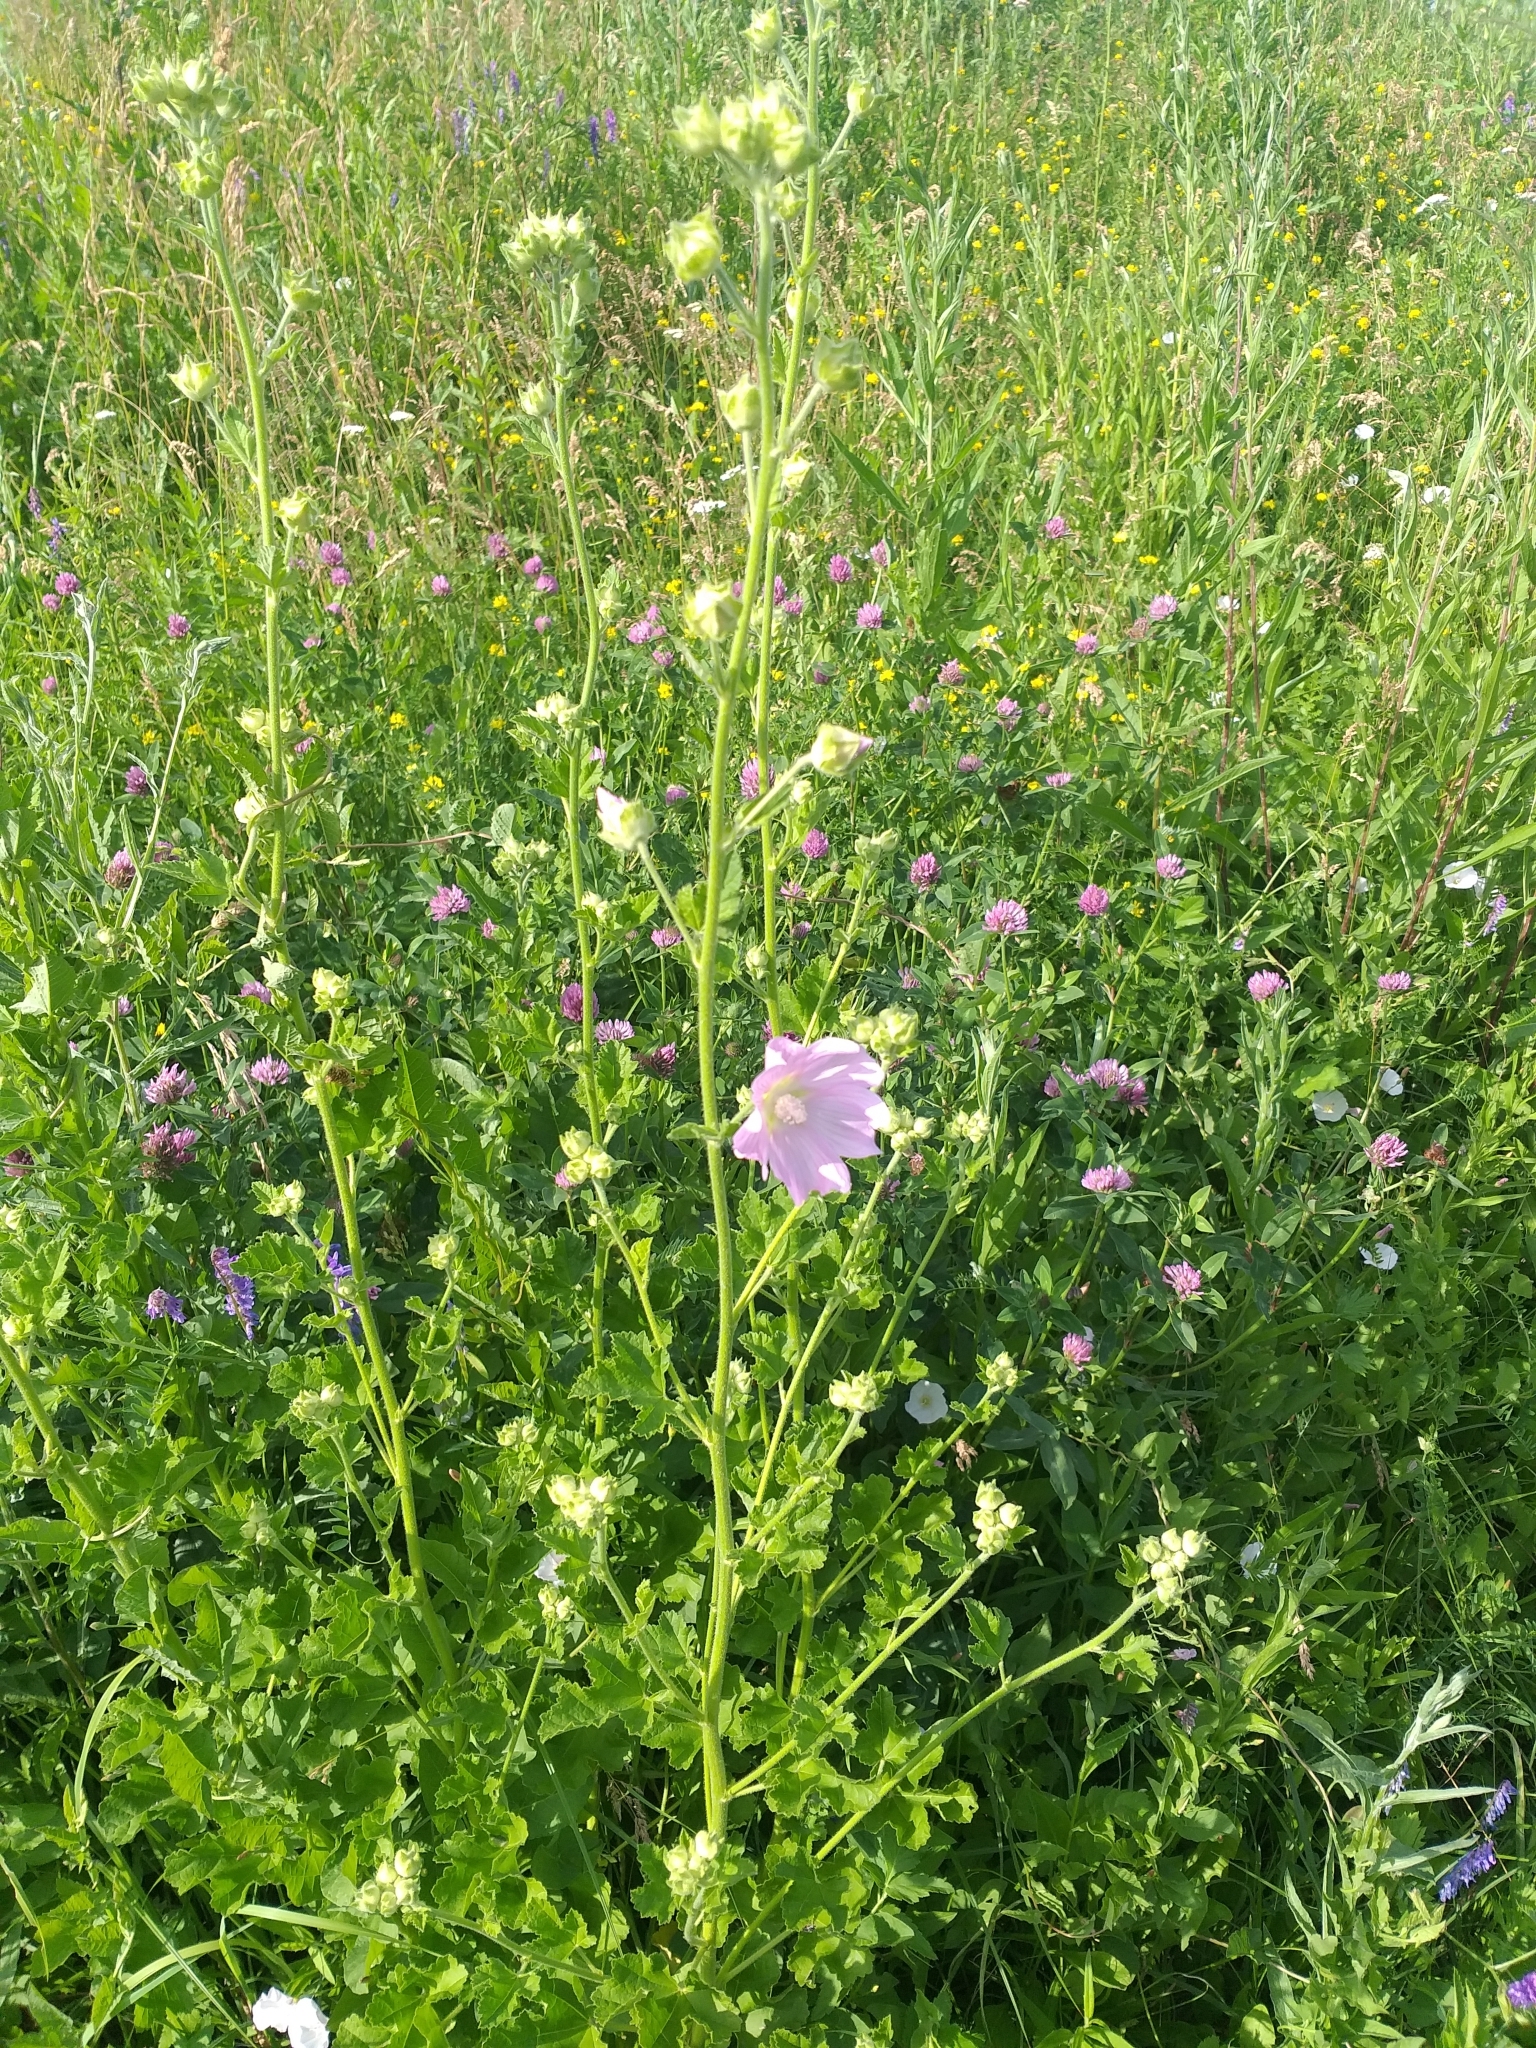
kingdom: Plantae
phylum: Tracheophyta
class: Magnoliopsida
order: Malvales
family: Malvaceae
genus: Malva
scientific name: Malva thuringiaca
